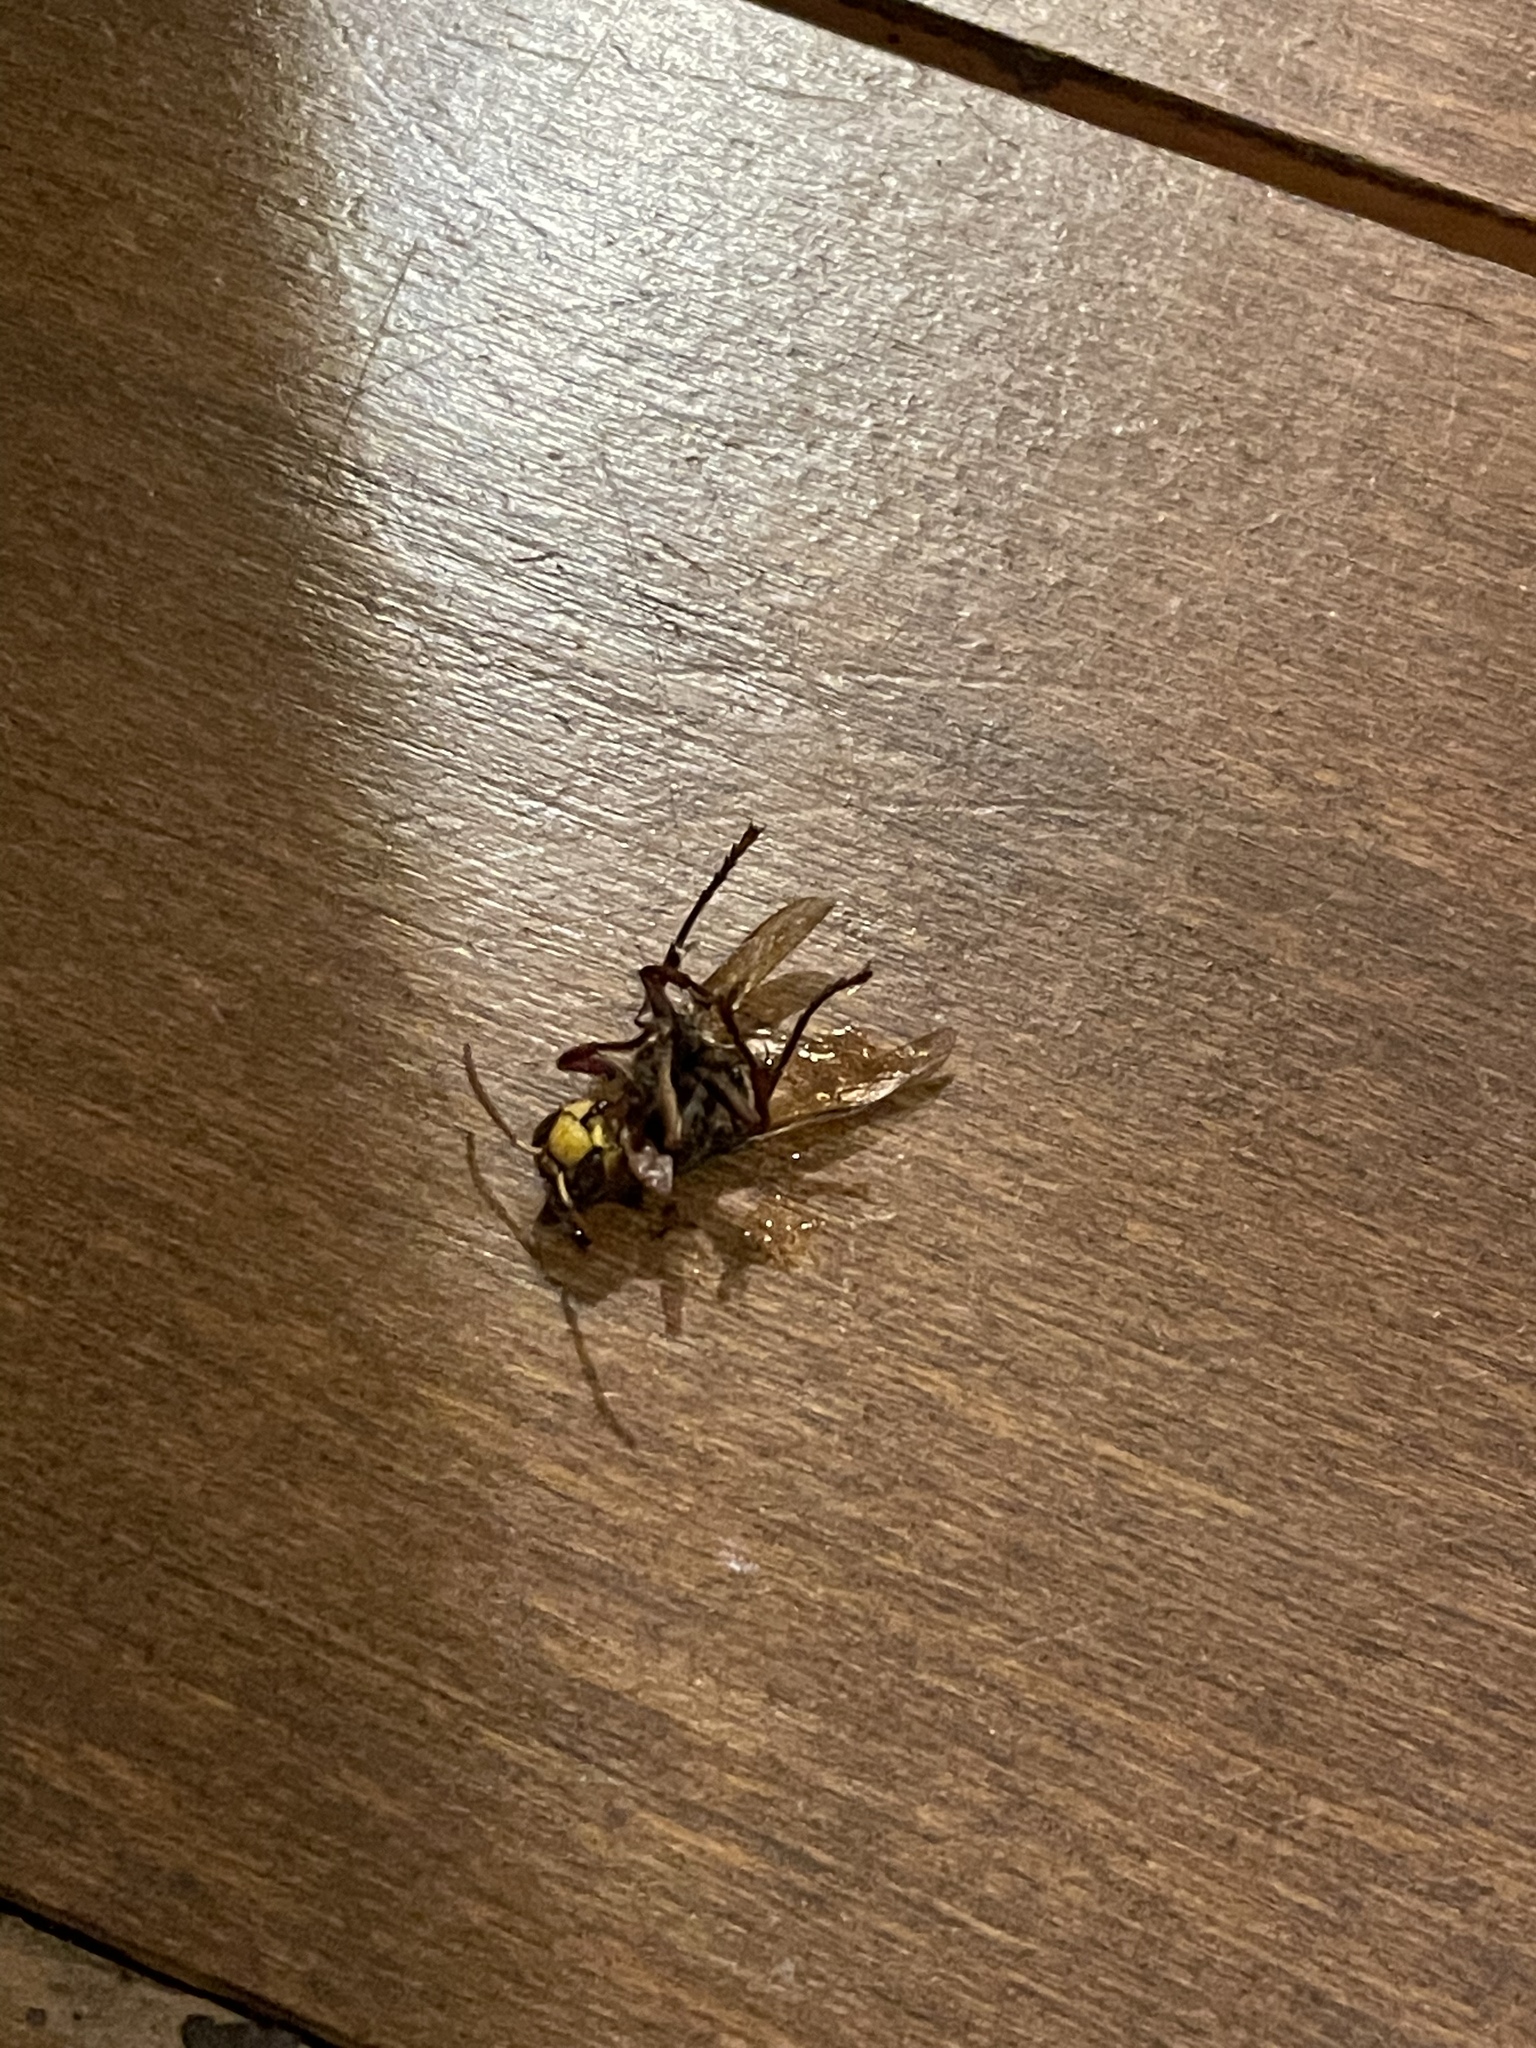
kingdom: Animalia
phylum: Arthropoda
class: Insecta
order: Hymenoptera
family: Vespidae
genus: Vespa
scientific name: Vespa crabro
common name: Hornet
